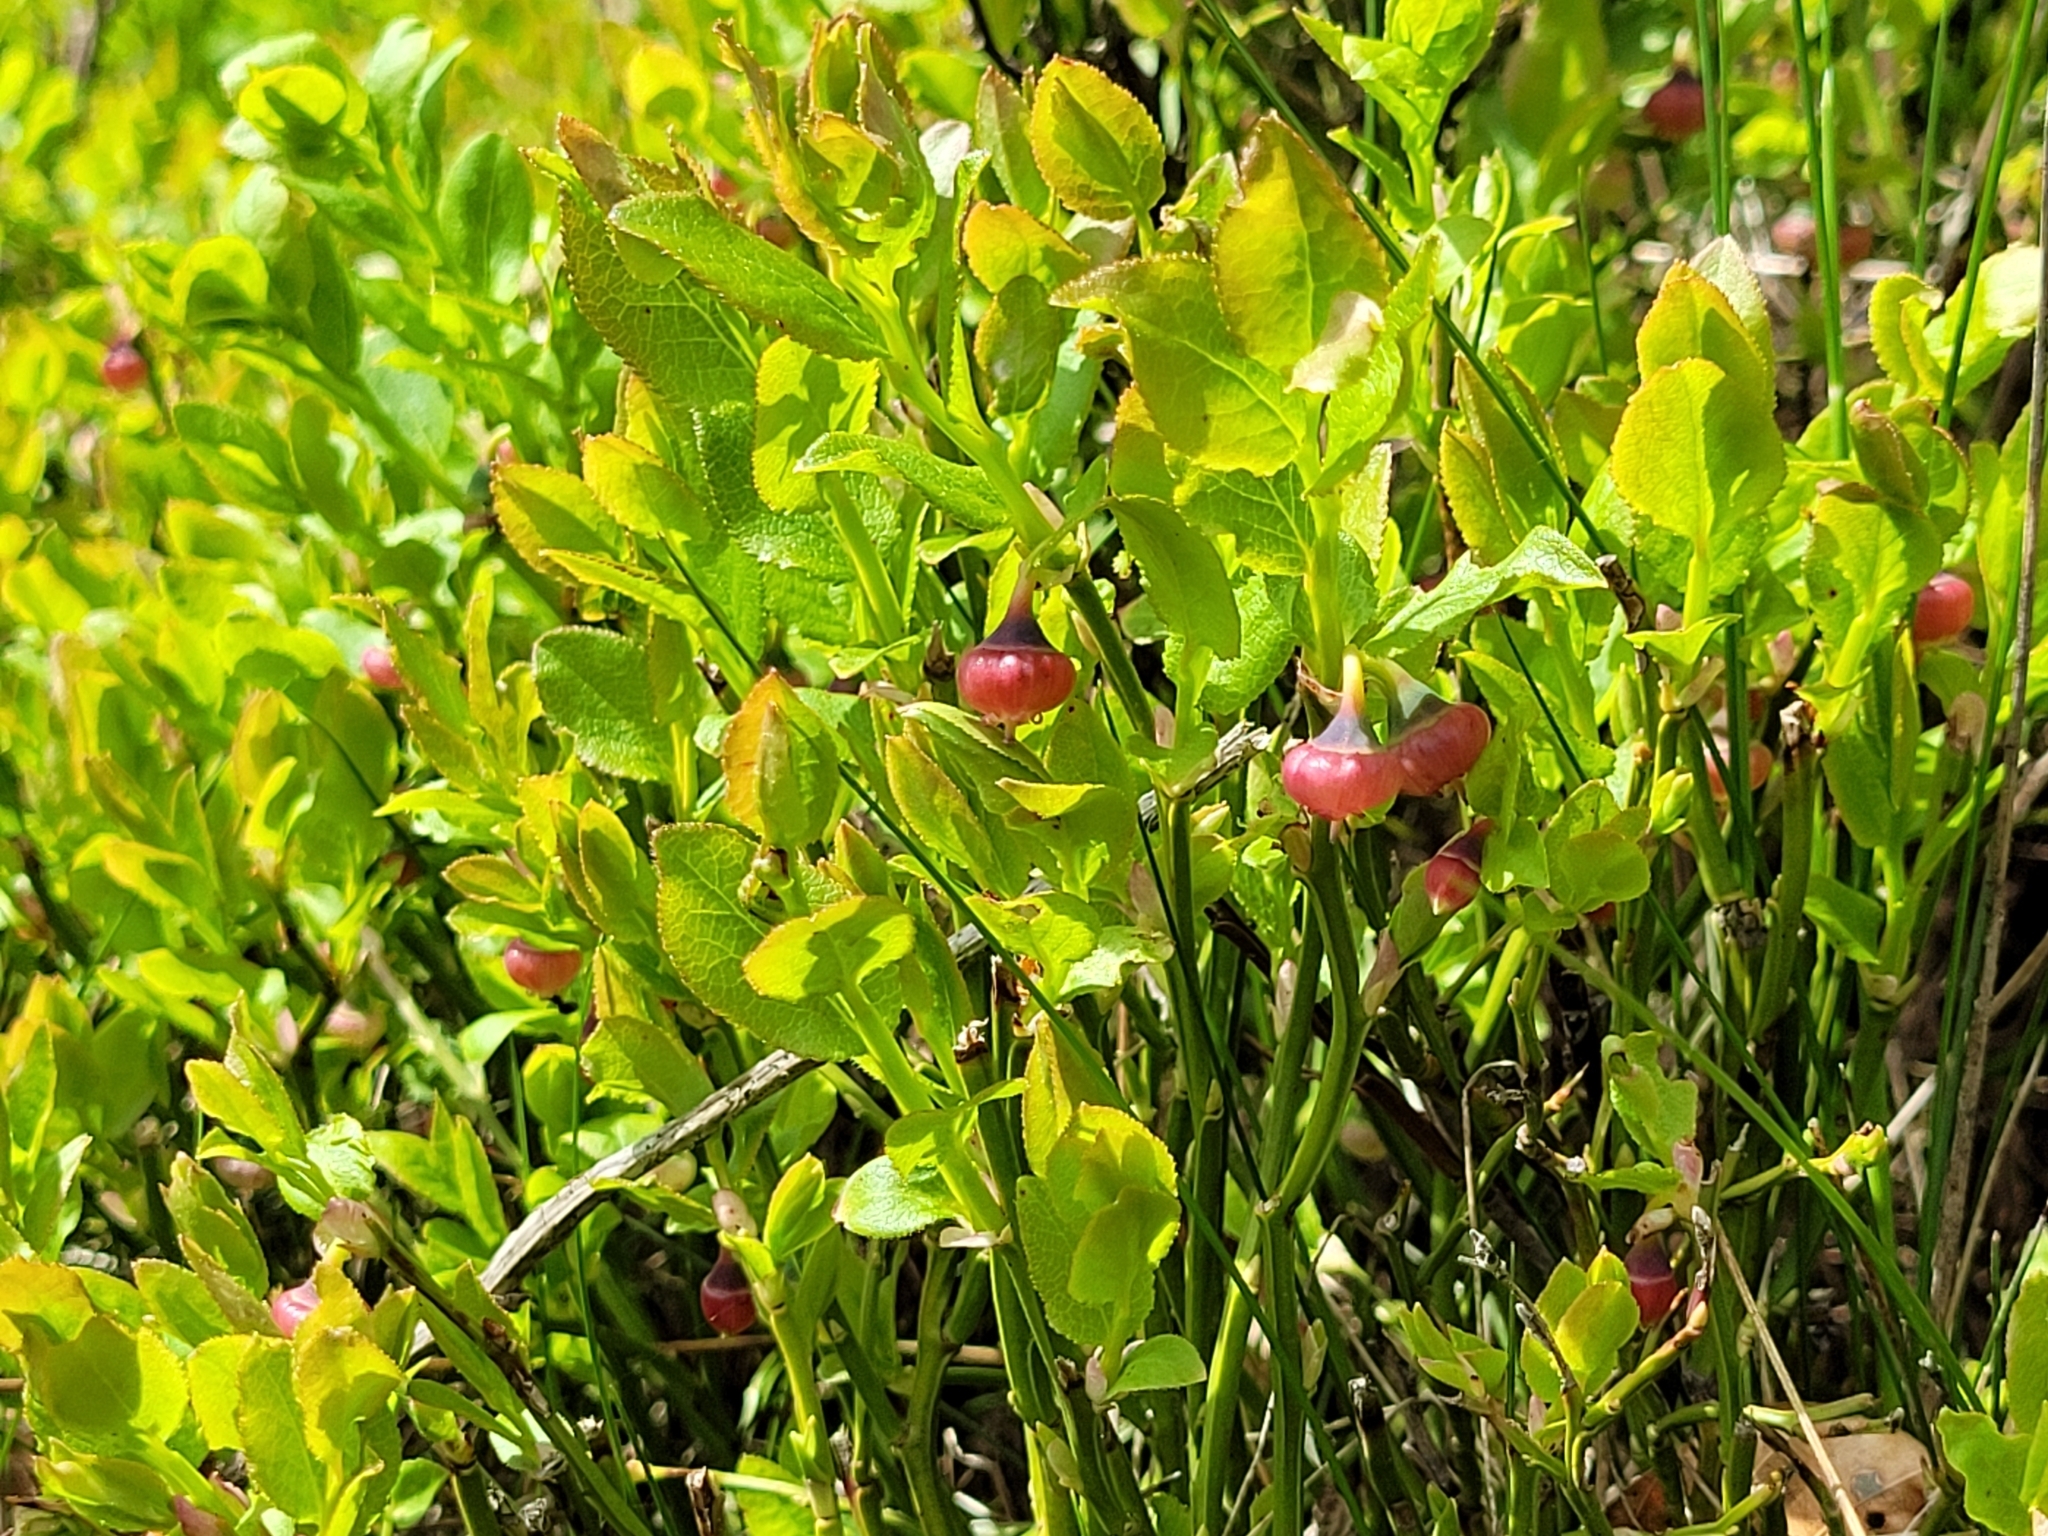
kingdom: Plantae
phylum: Tracheophyta
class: Magnoliopsida
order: Ericales
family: Ericaceae
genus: Vaccinium
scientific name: Vaccinium myrtillus
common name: Bilberry
